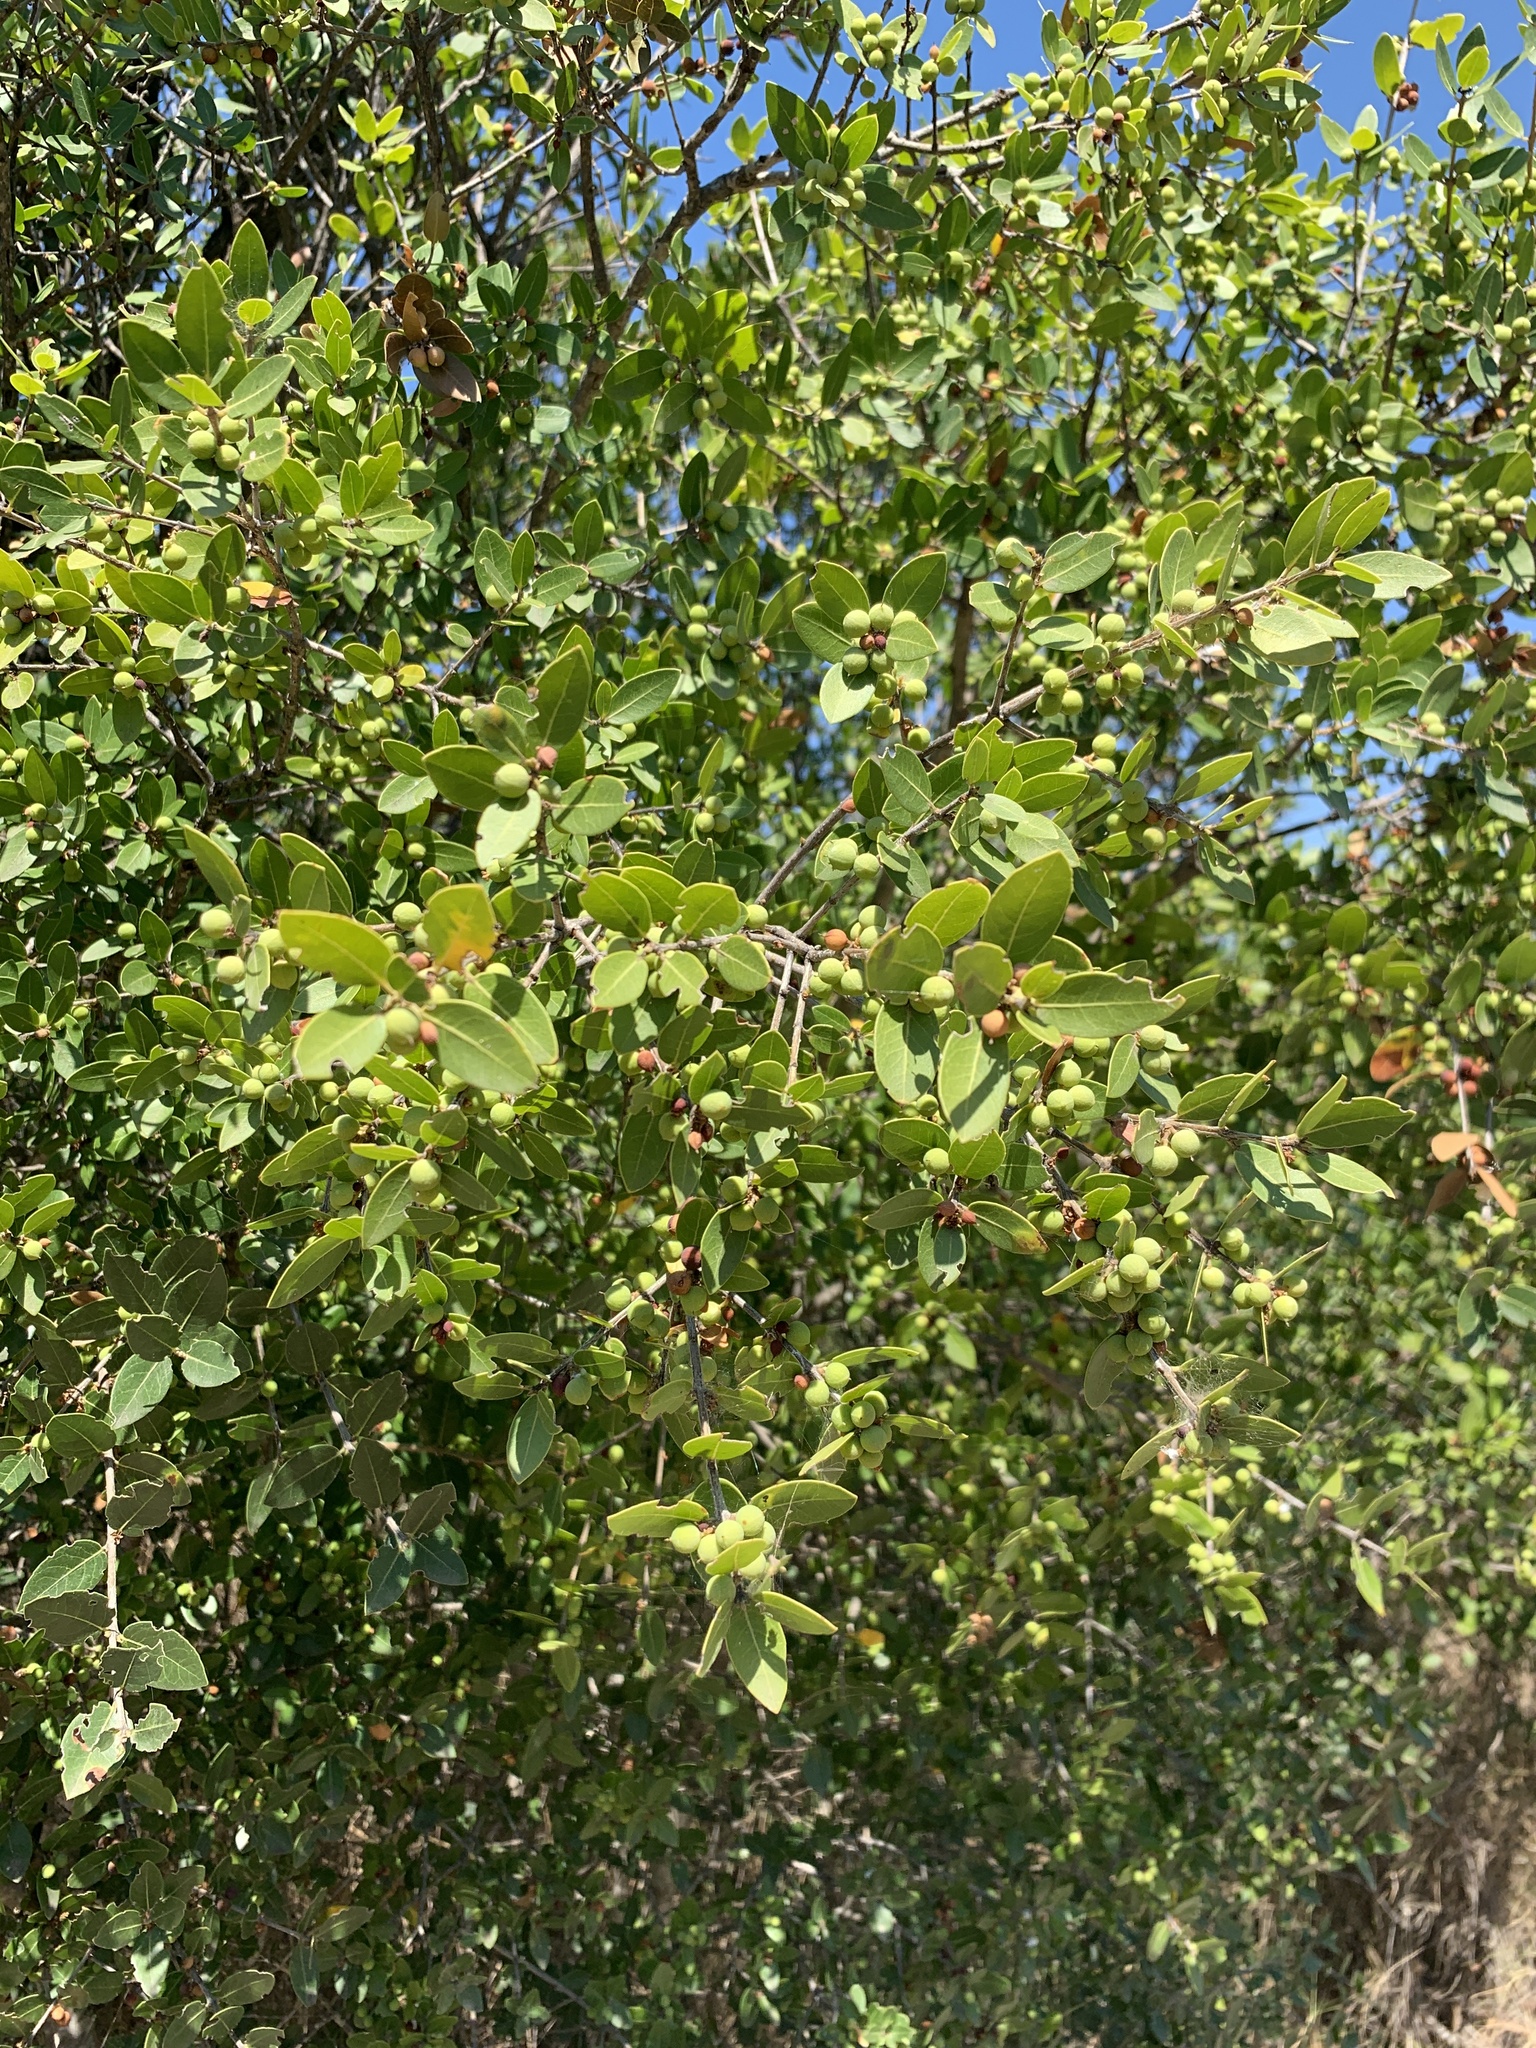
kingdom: Plantae
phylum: Tracheophyta
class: Magnoliopsida
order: Lamiales
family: Oleaceae
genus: Phillyrea
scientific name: Phillyrea latifolia
